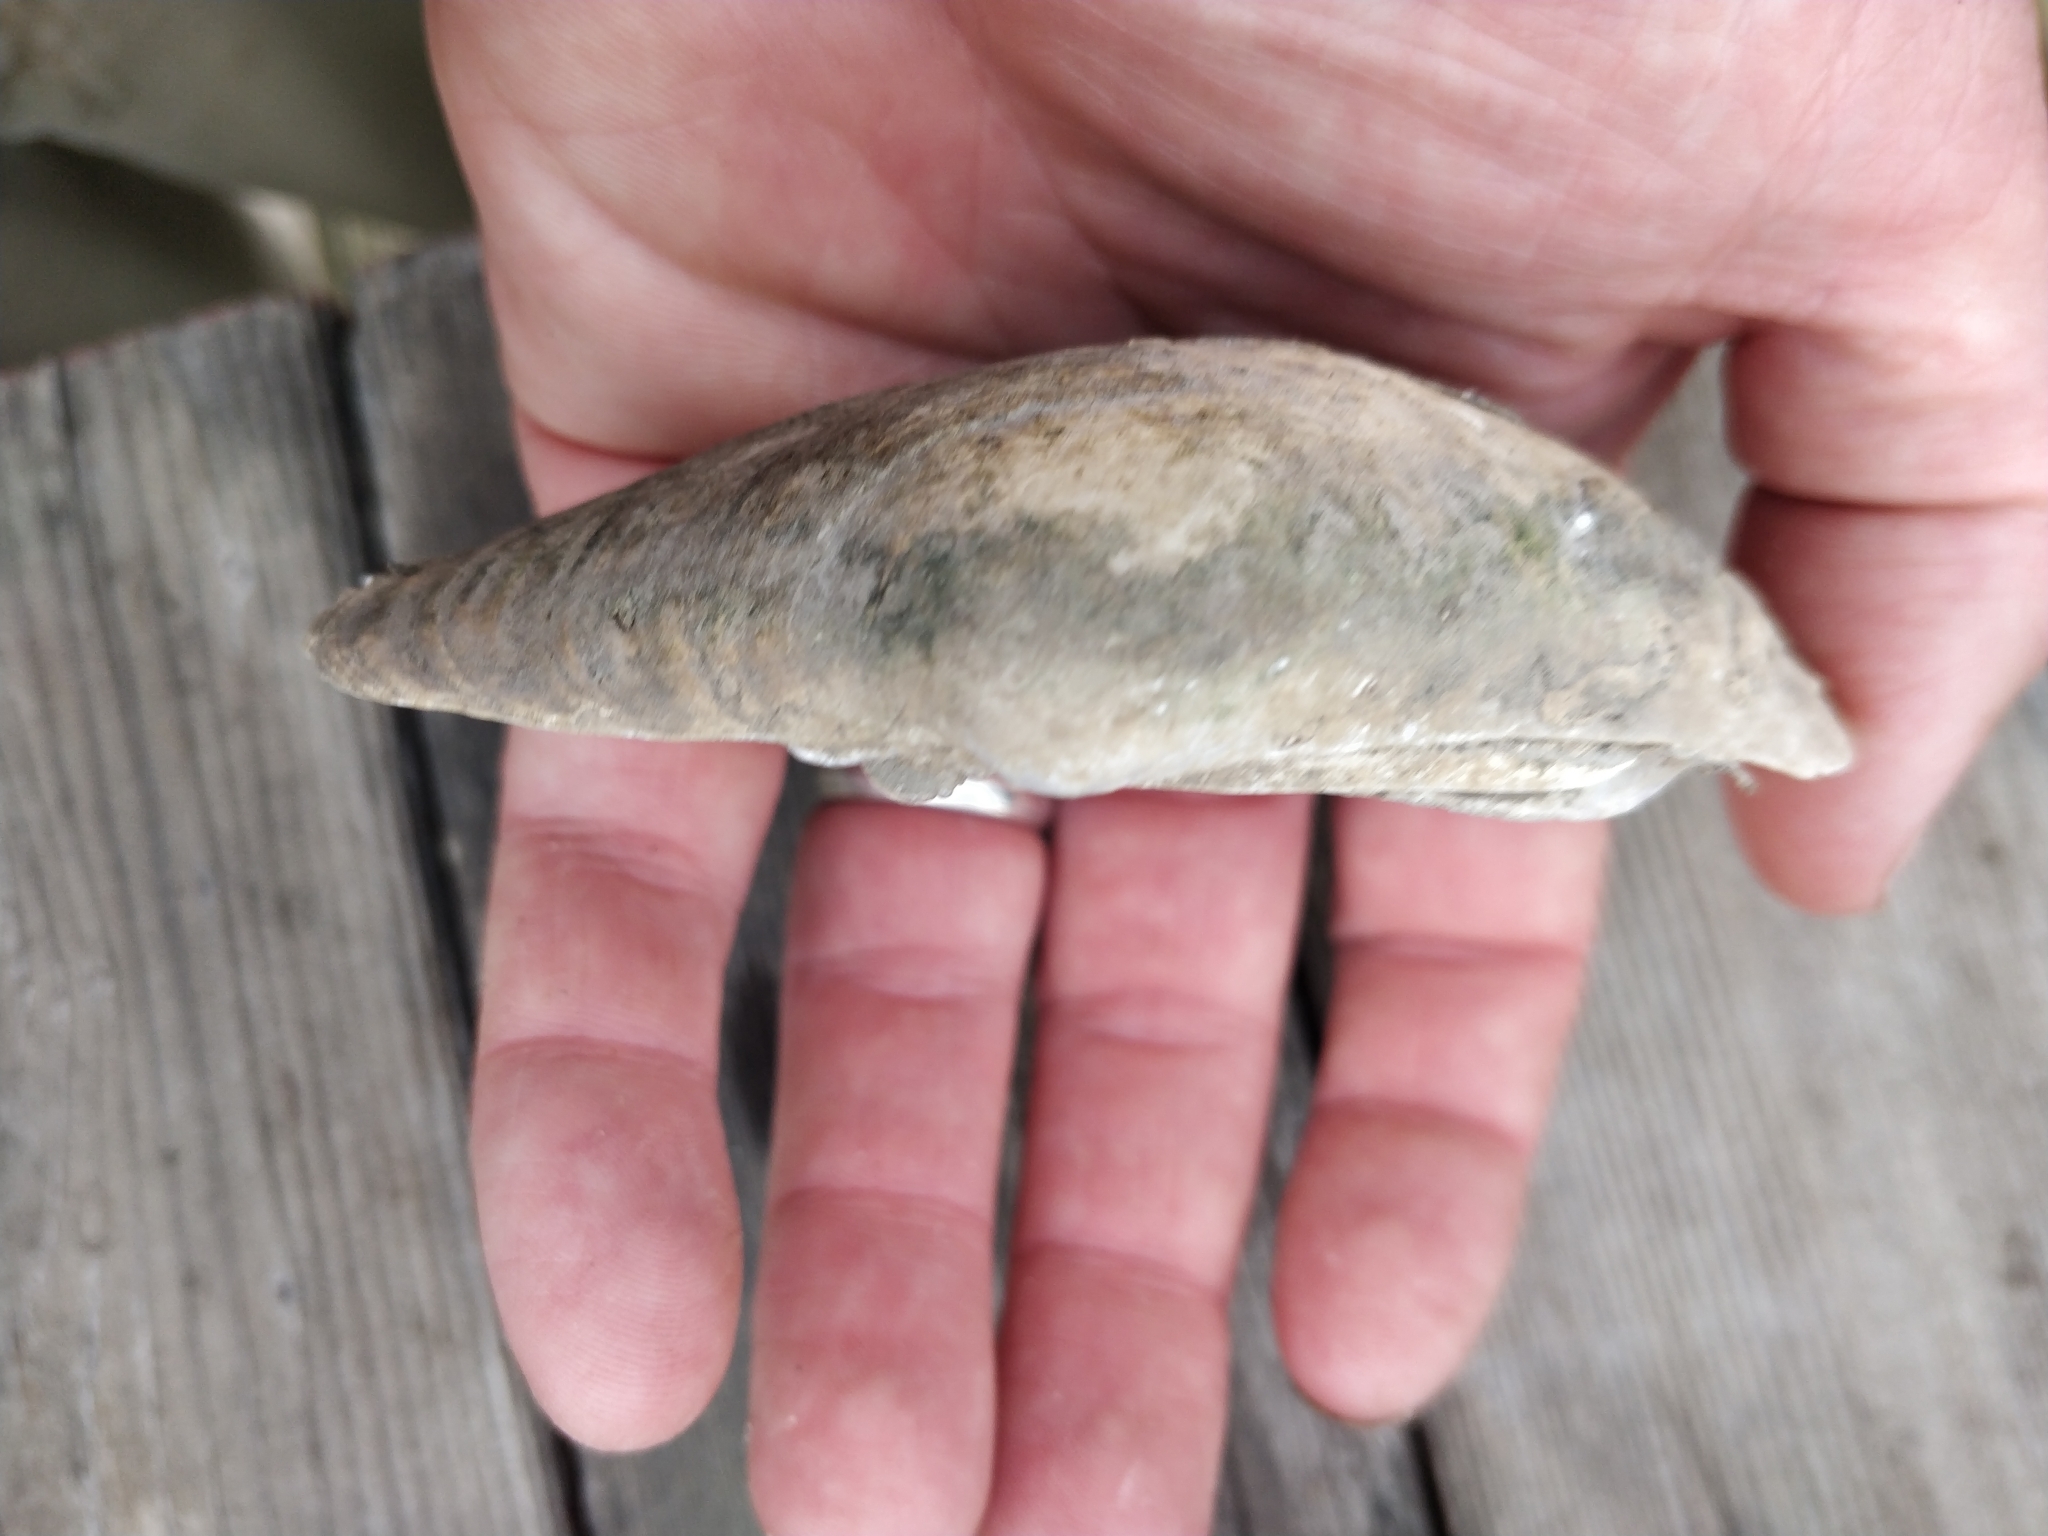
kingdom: Animalia
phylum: Mollusca
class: Bivalvia
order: Unionida
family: Unionidae
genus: Lampsilis
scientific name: Lampsilis cardium
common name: Plain pocketbook
